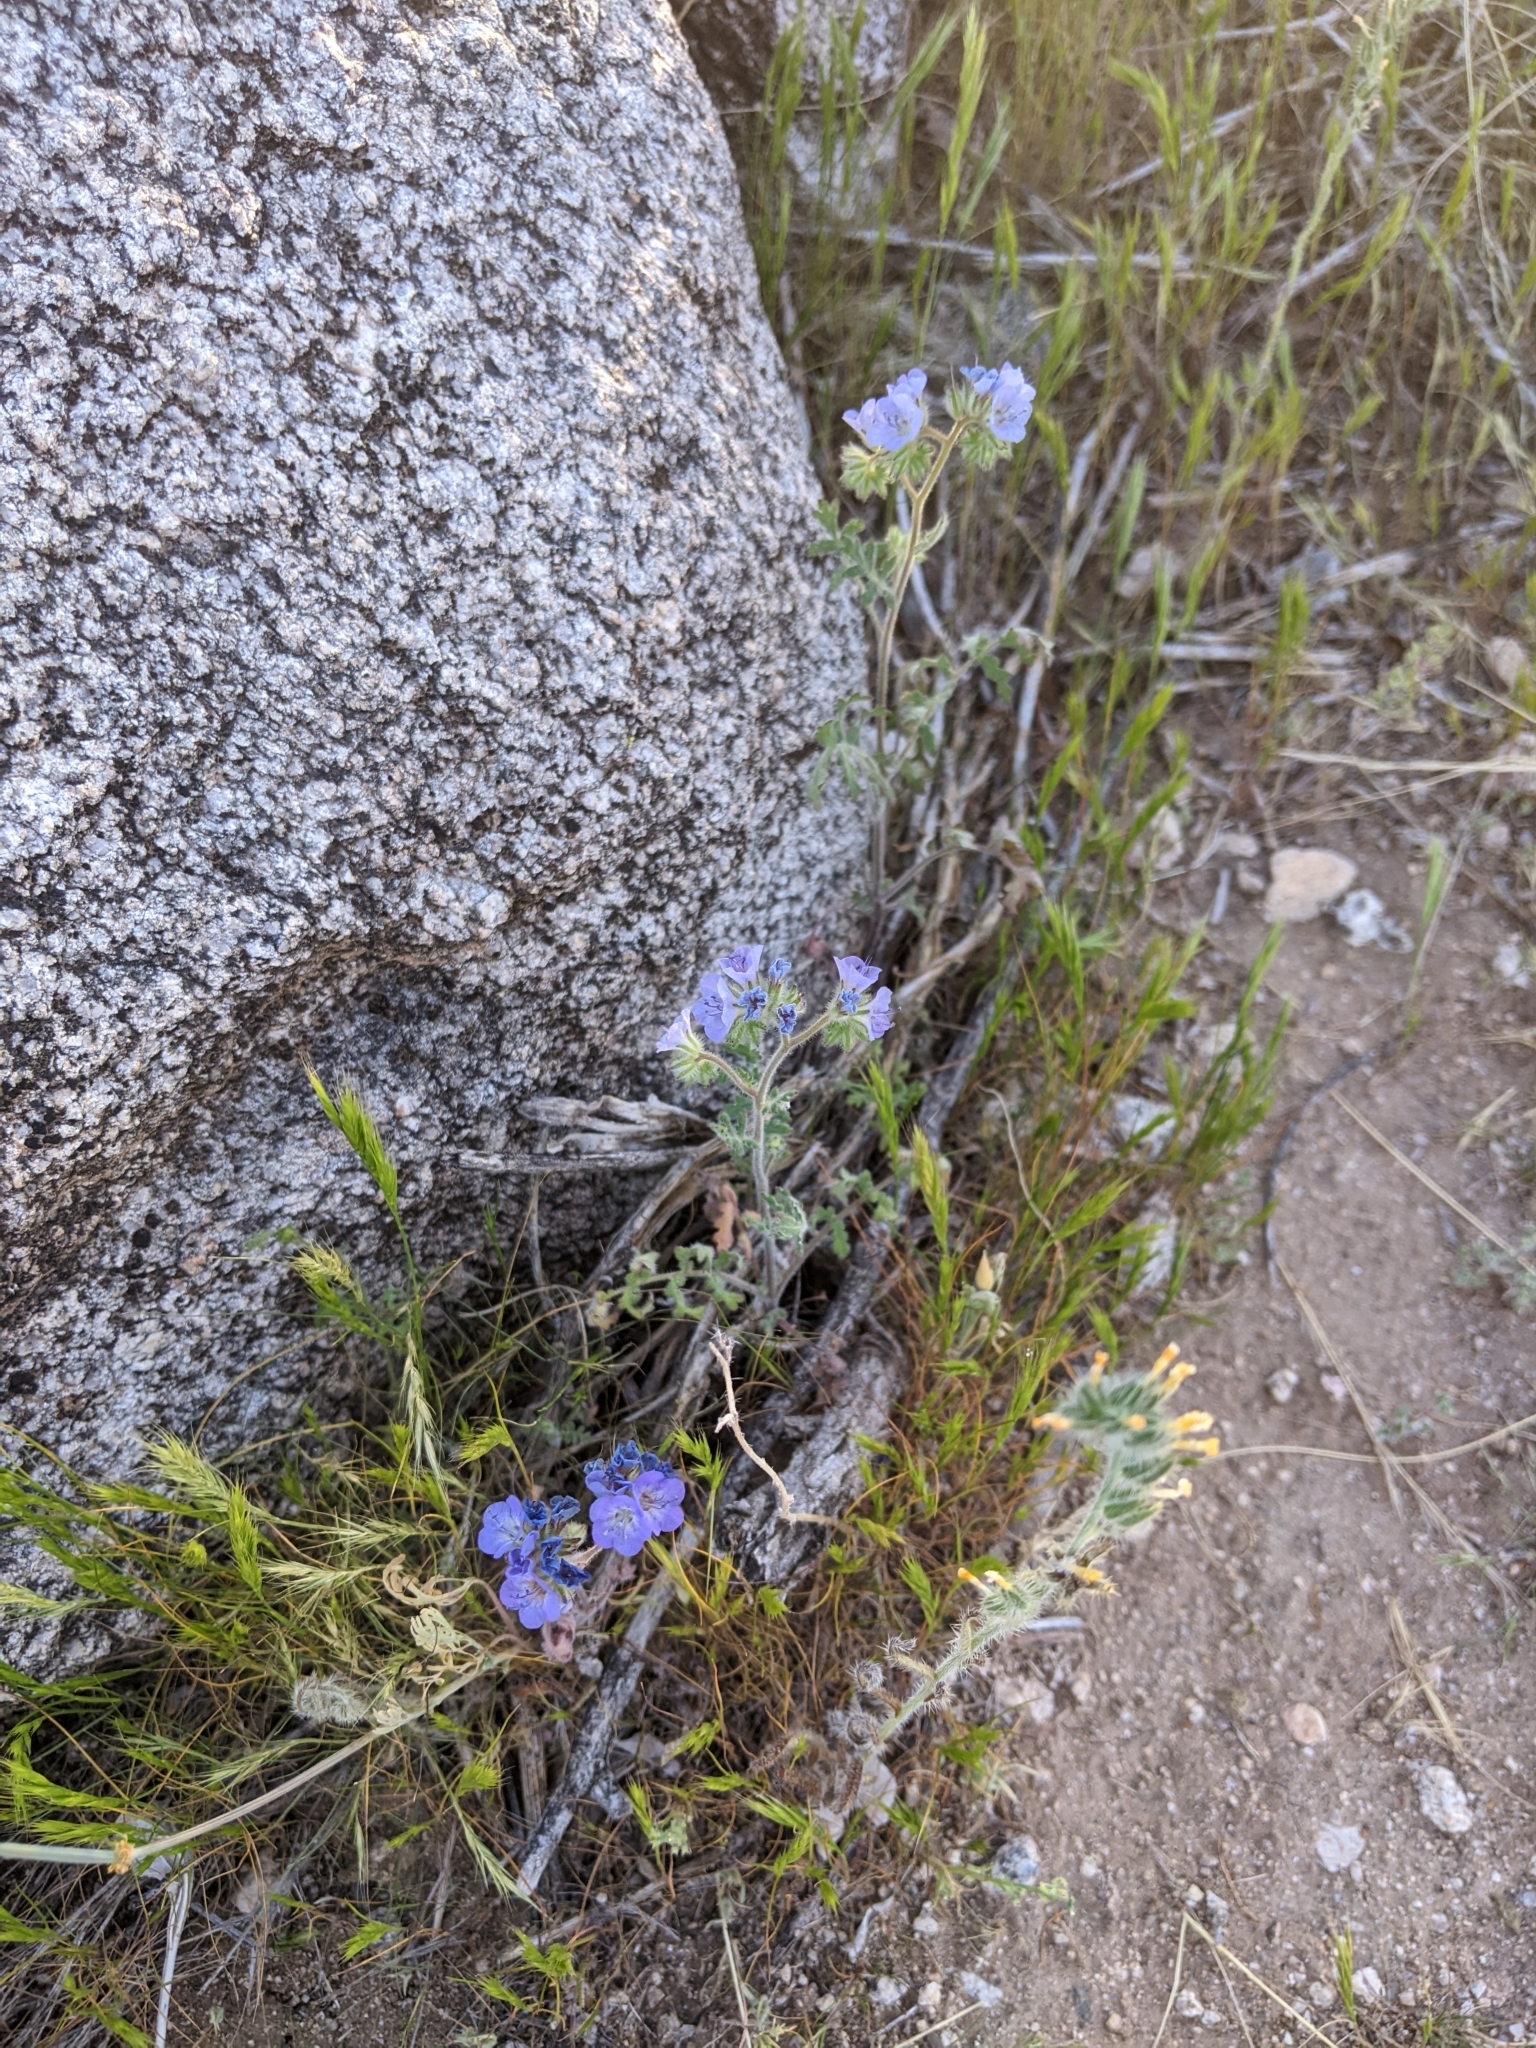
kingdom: Plantae
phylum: Tracheophyta
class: Magnoliopsida
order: Boraginales
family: Hydrophyllaceae
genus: Phacelia
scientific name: Phacelia distans
